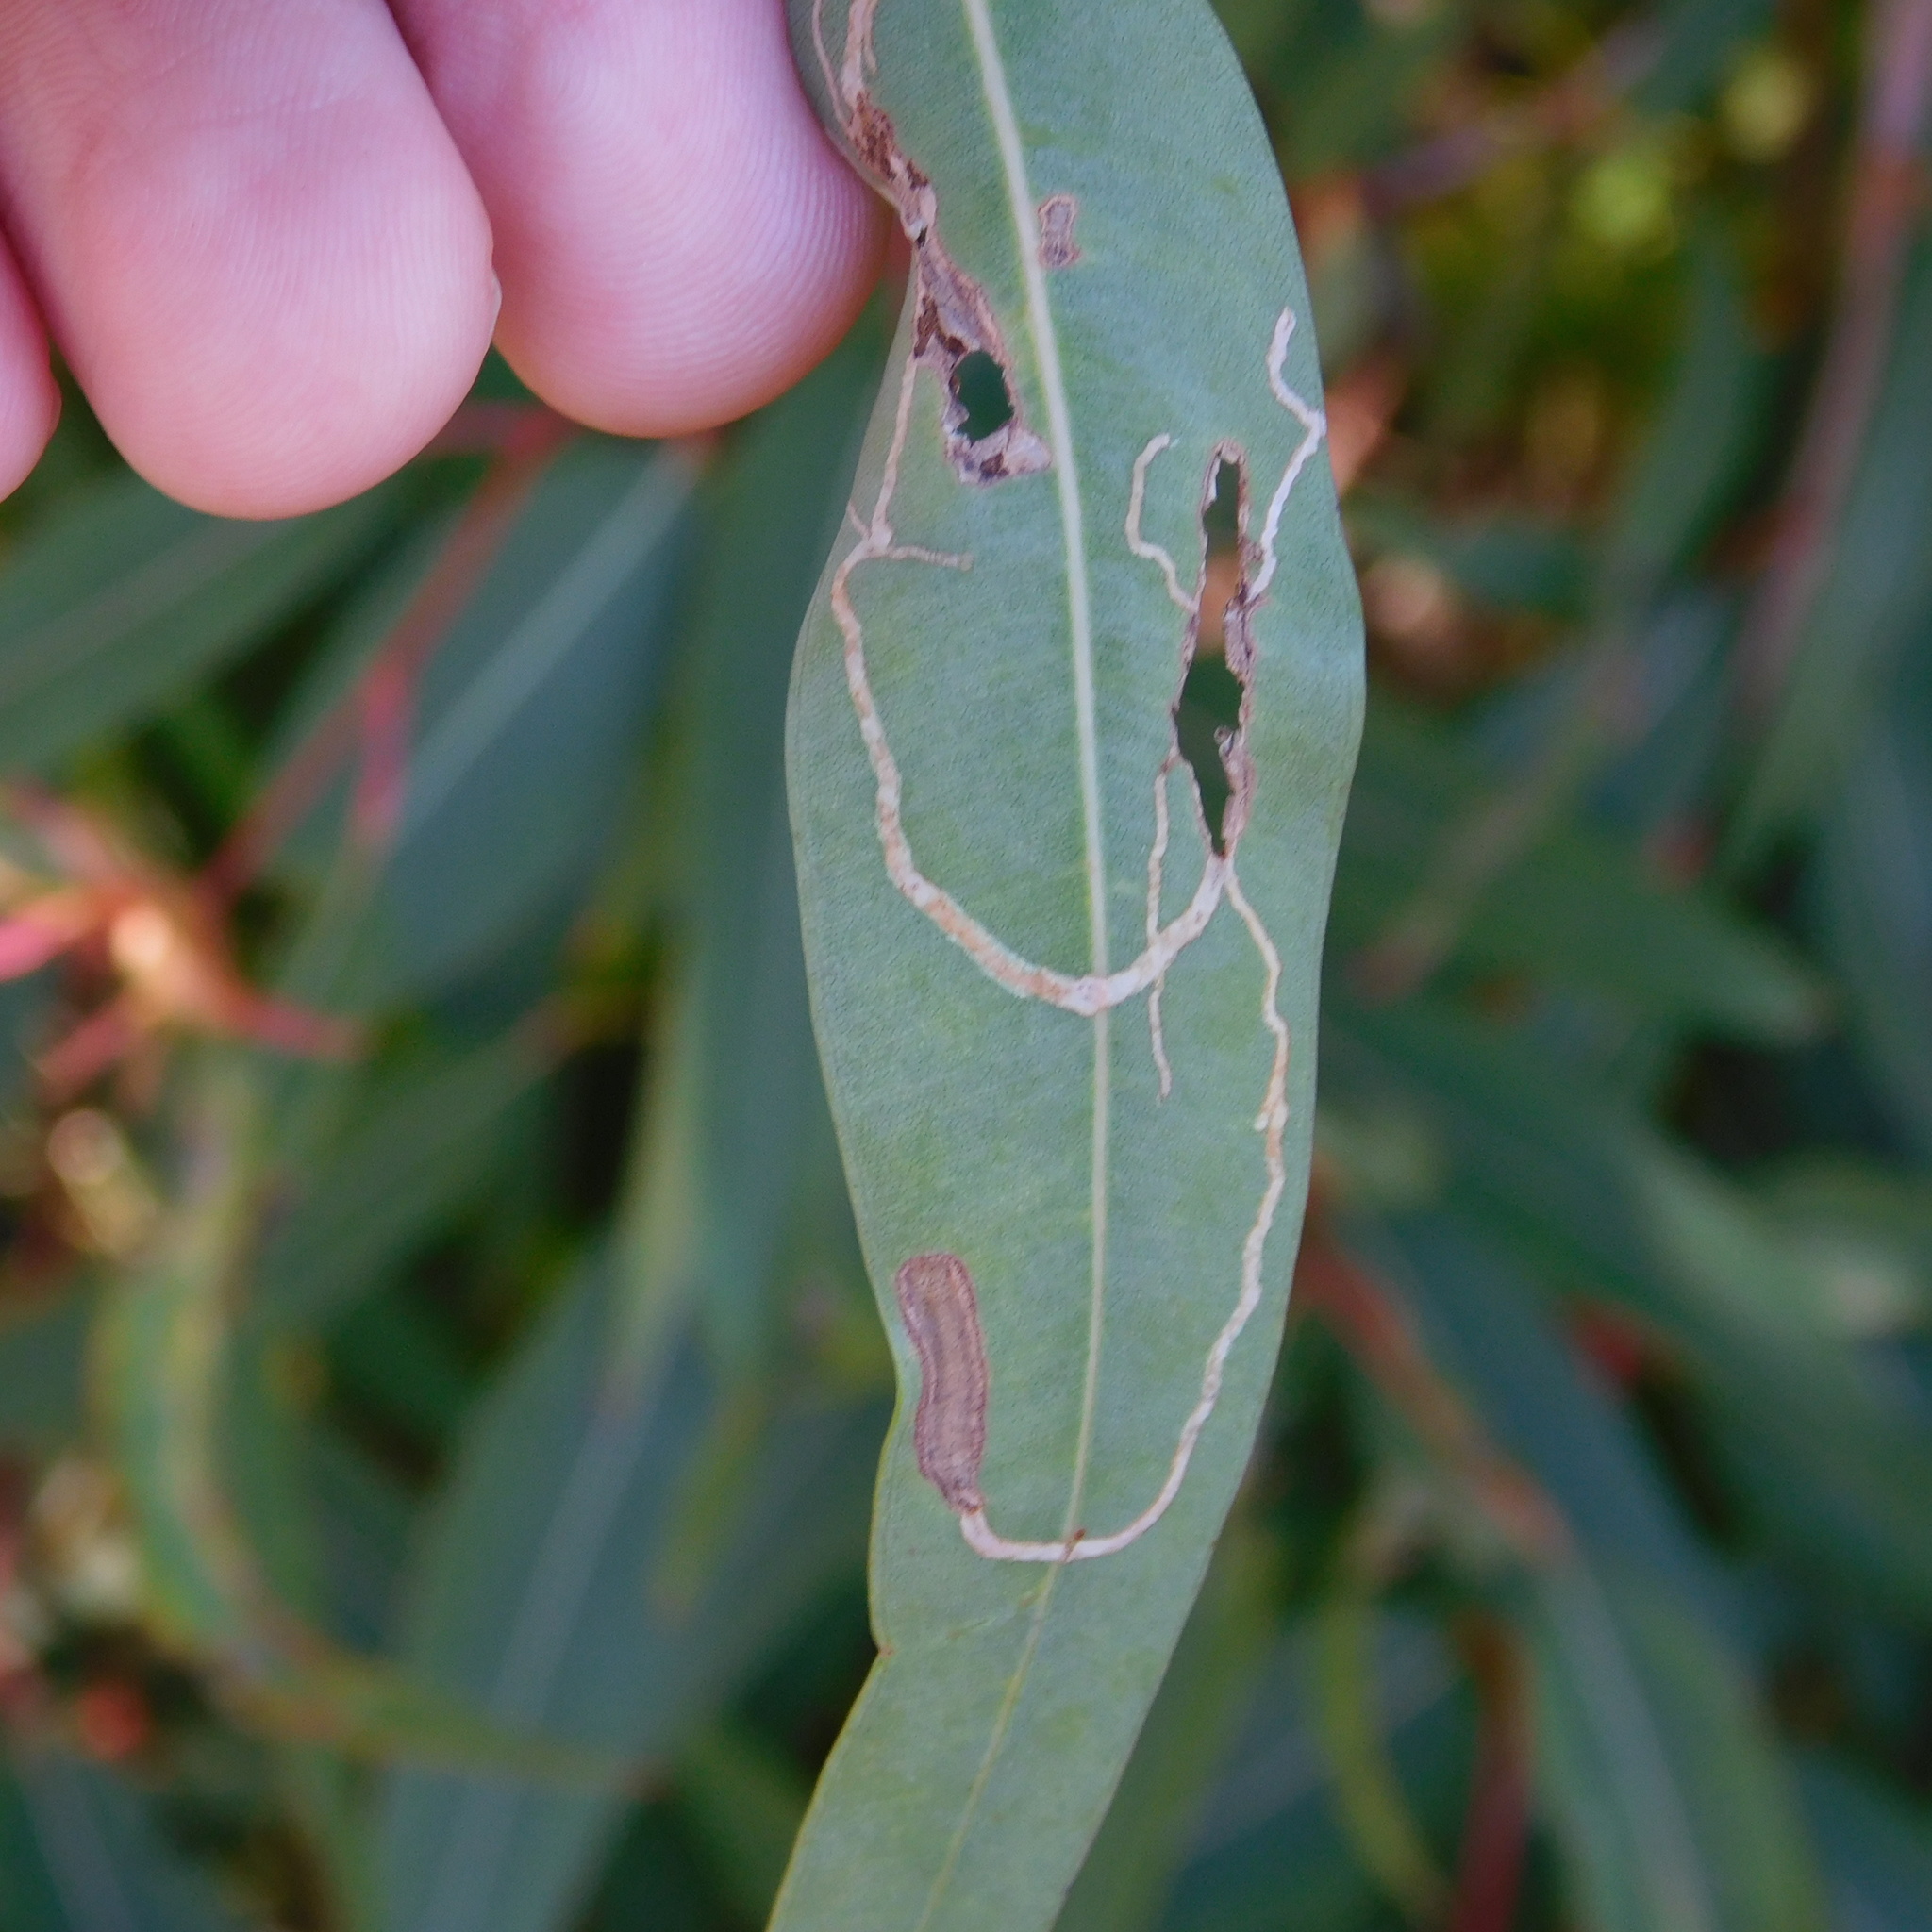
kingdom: Animalia
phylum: Arthropoda
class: Insecta
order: Lepidoptera
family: Gracillariidae
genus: Macarostola
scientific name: Macarostola ida
